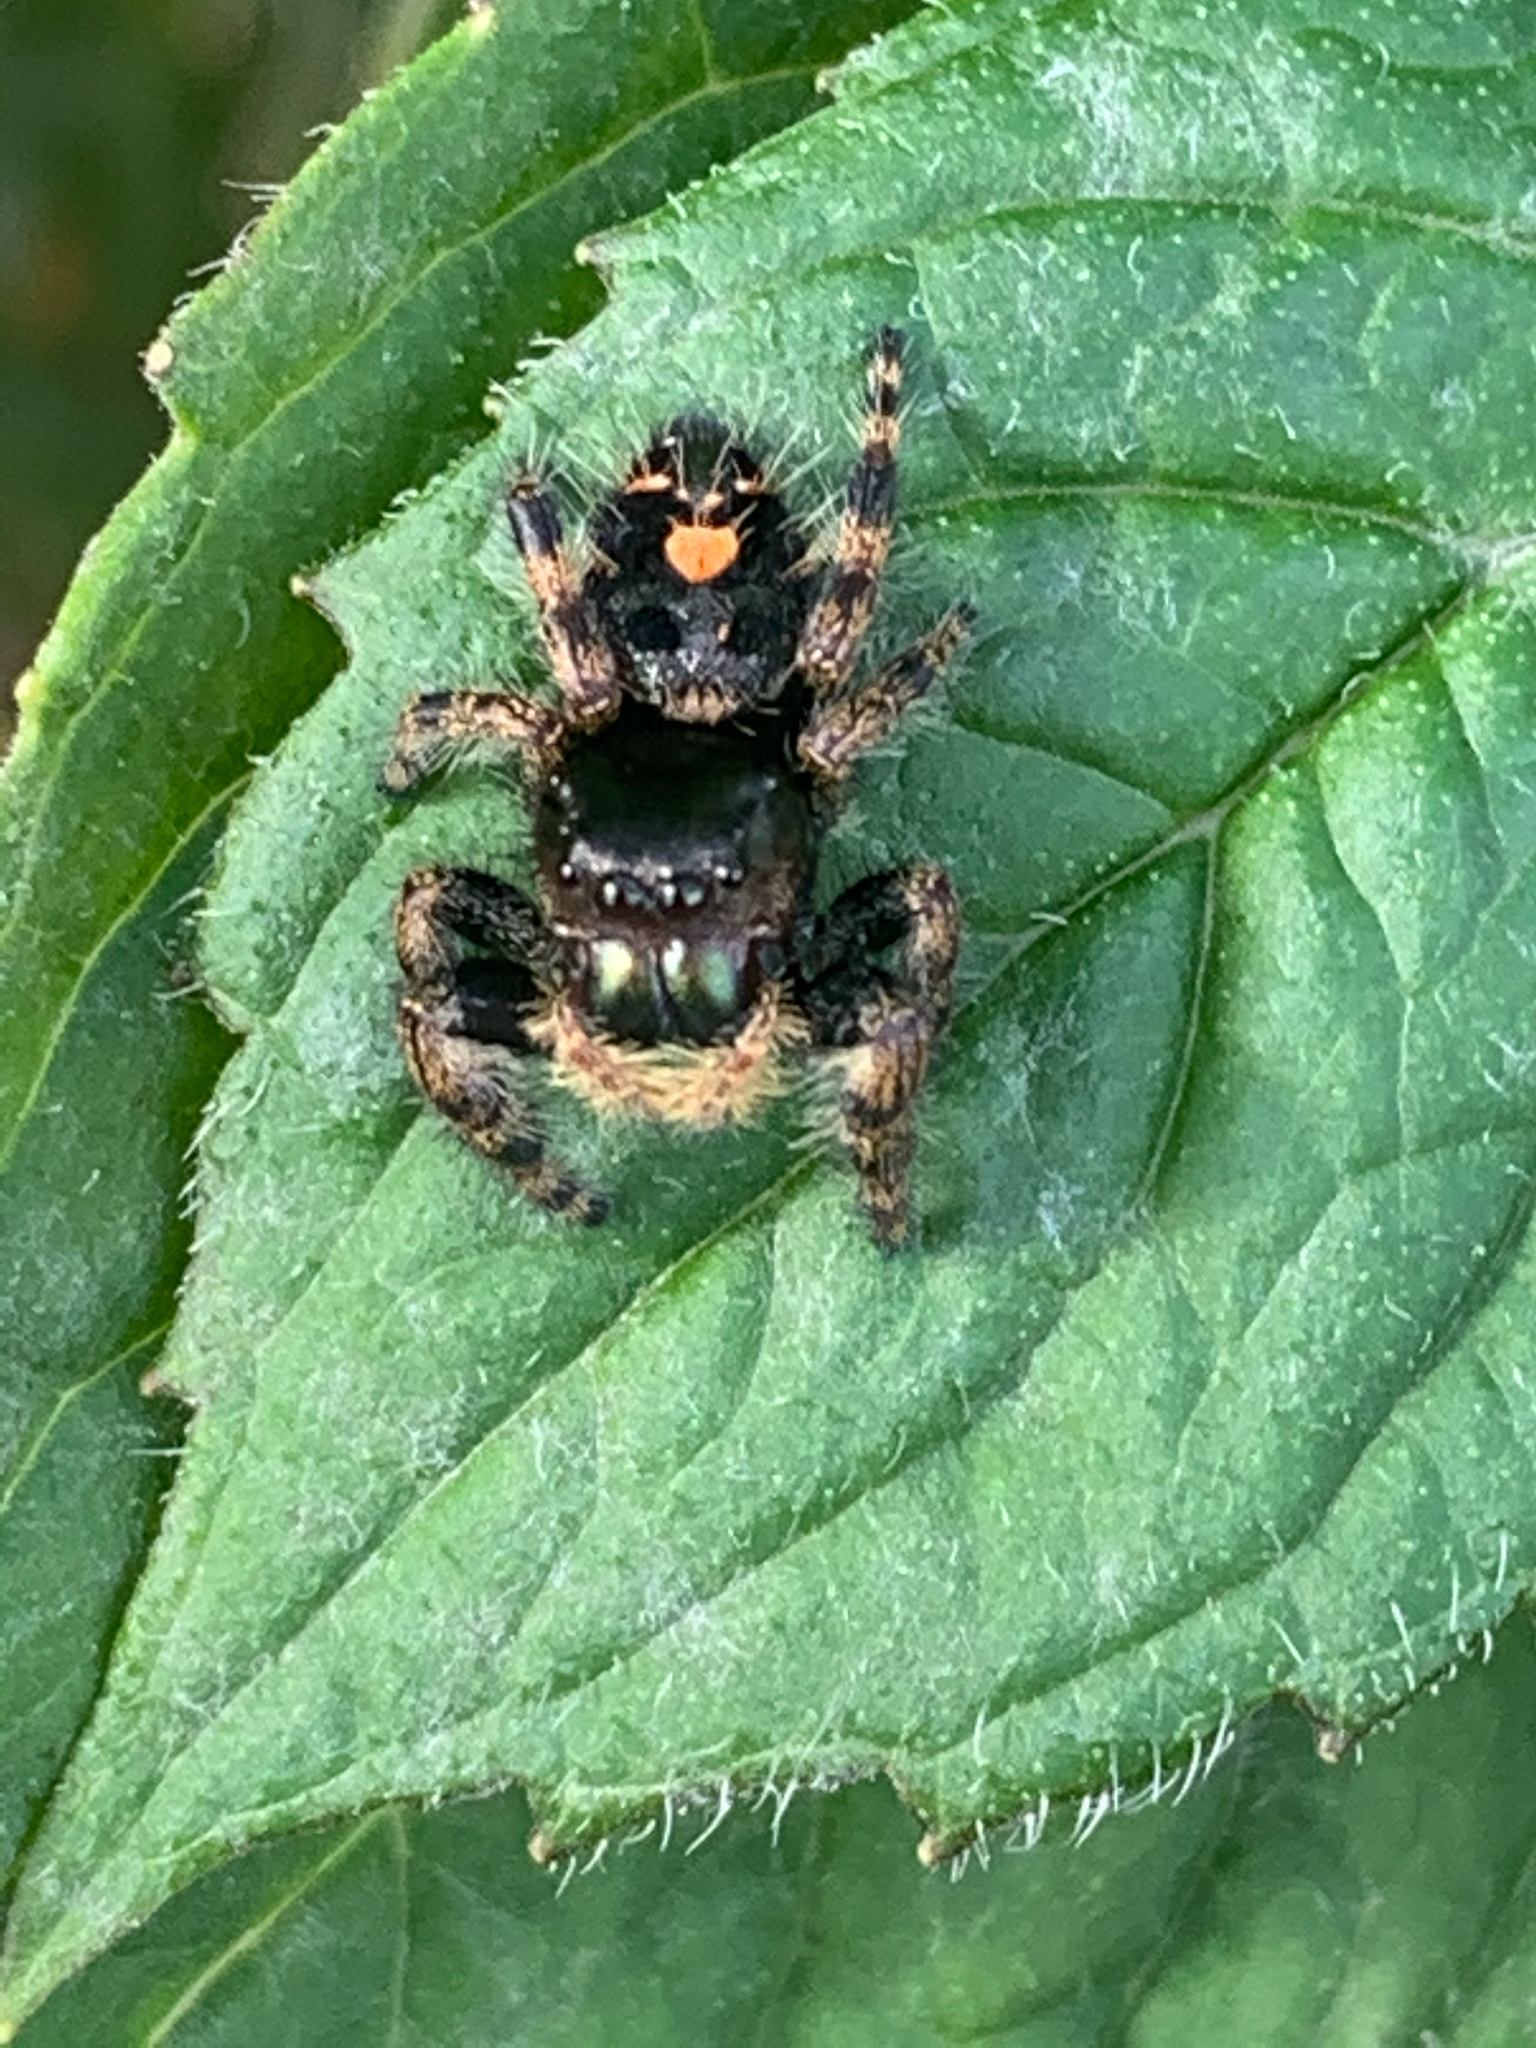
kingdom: Animalia
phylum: Arthropoda
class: Arachnida
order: Araneae
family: Salticidae
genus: Phidippus
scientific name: Phidippus audax
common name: Bold jumper
